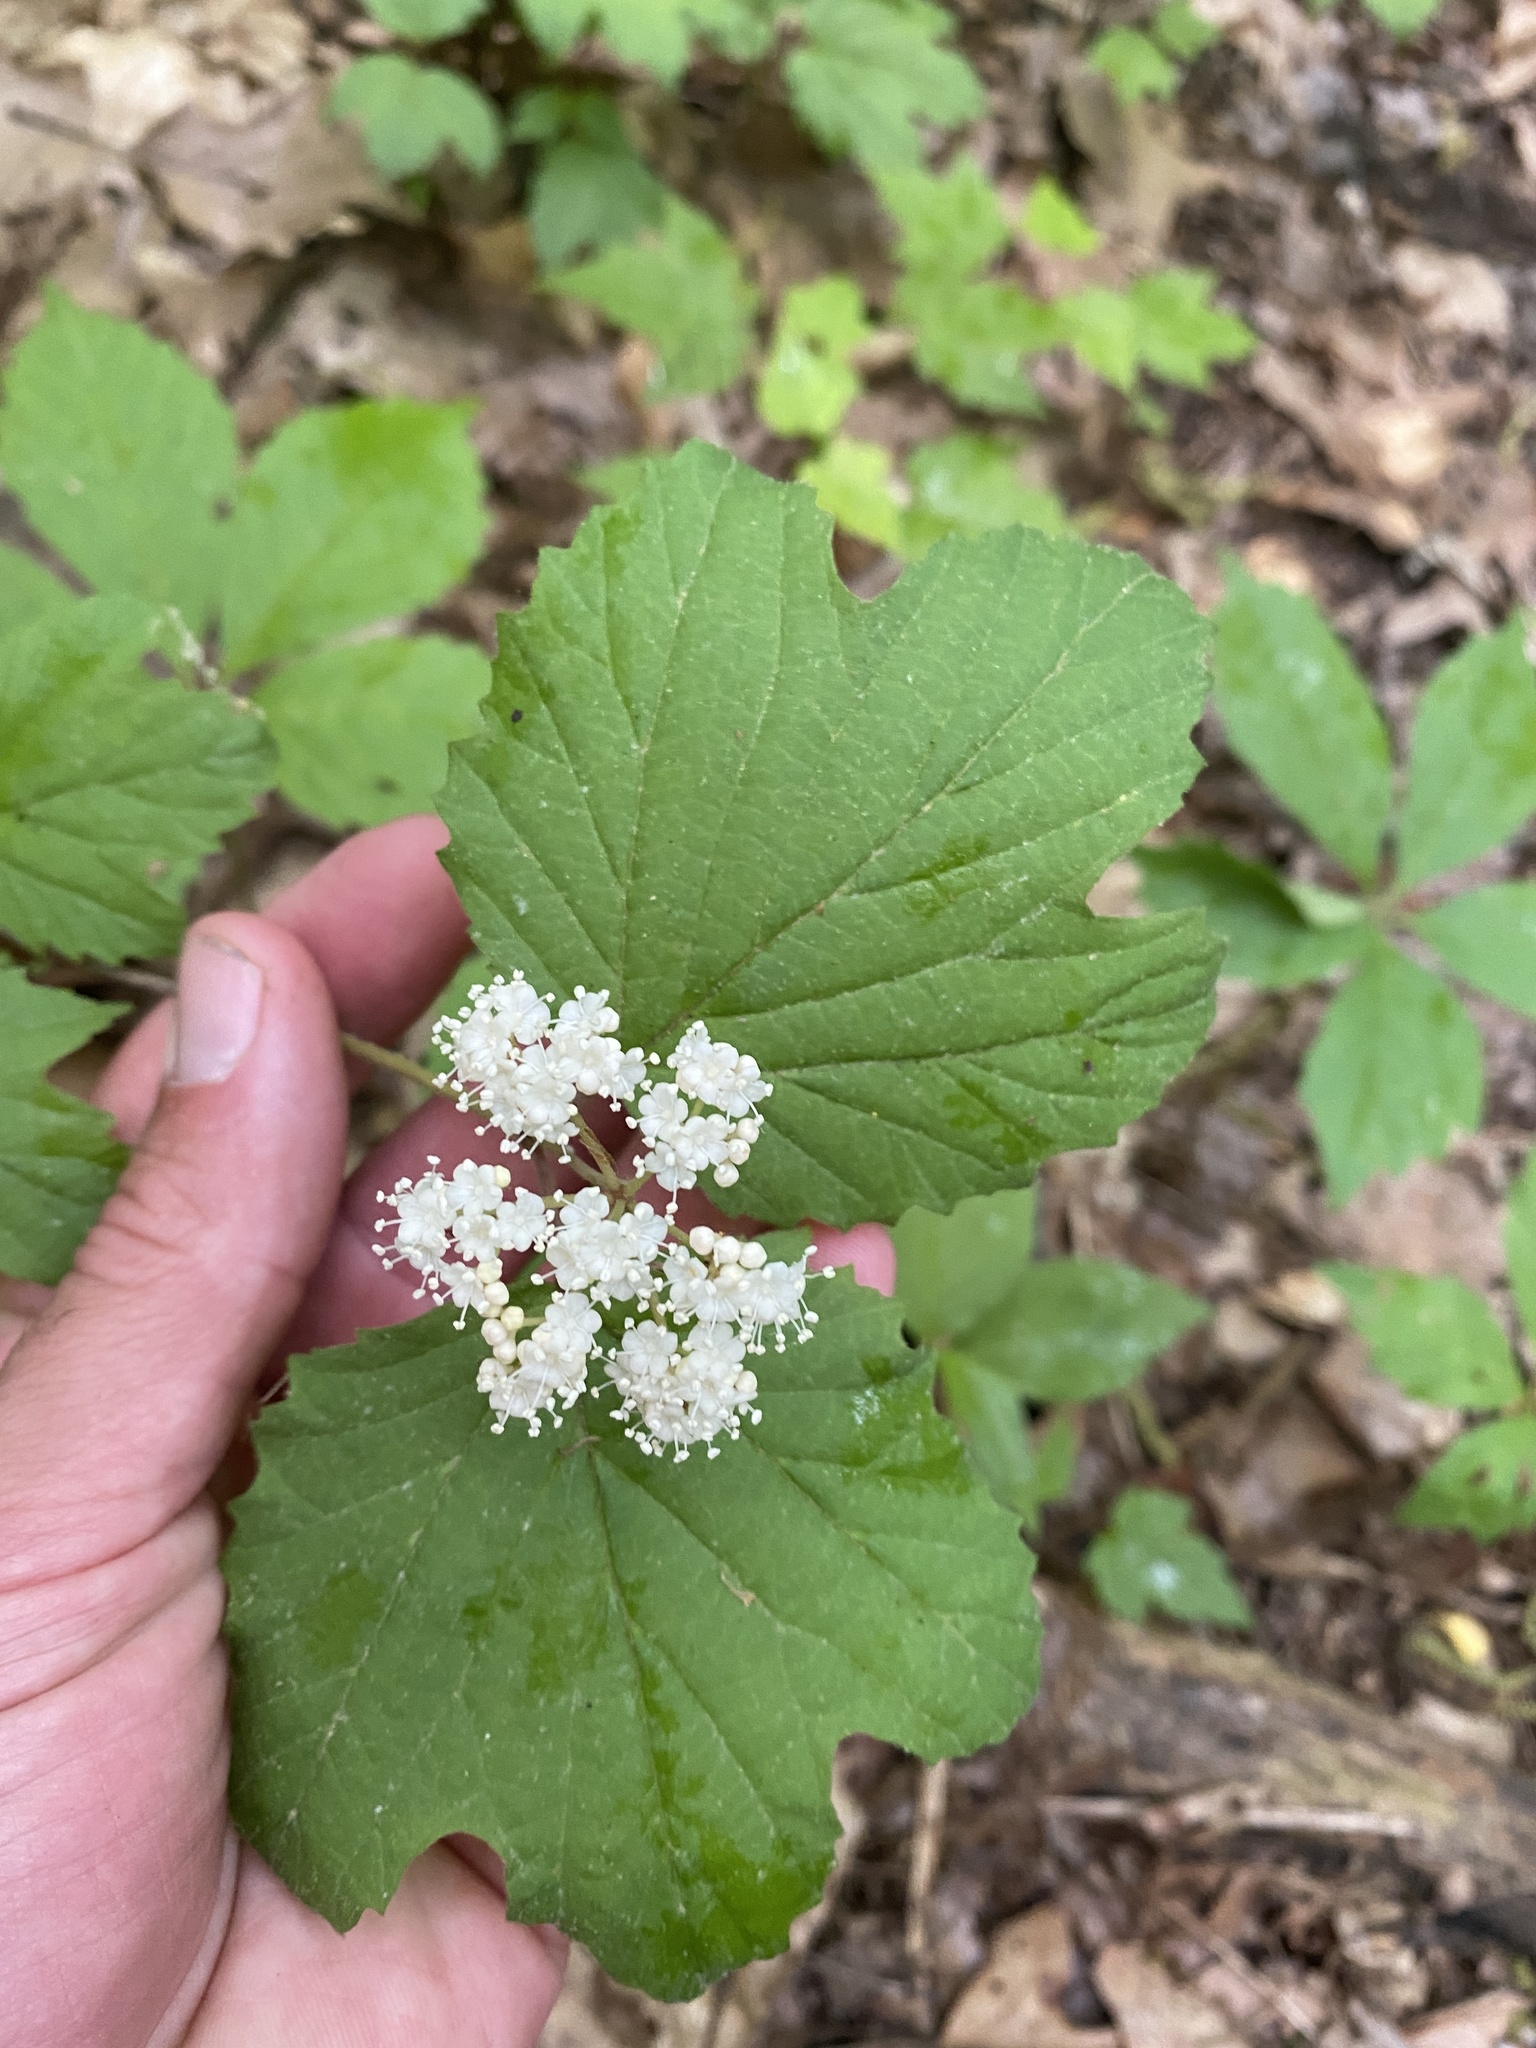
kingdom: Plantae
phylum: Tracheophyta
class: Magnoliopsida
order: Dipsacales
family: Viburnaceae
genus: Viburnum
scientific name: Viburnum acerifolium
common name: Dockmackie
